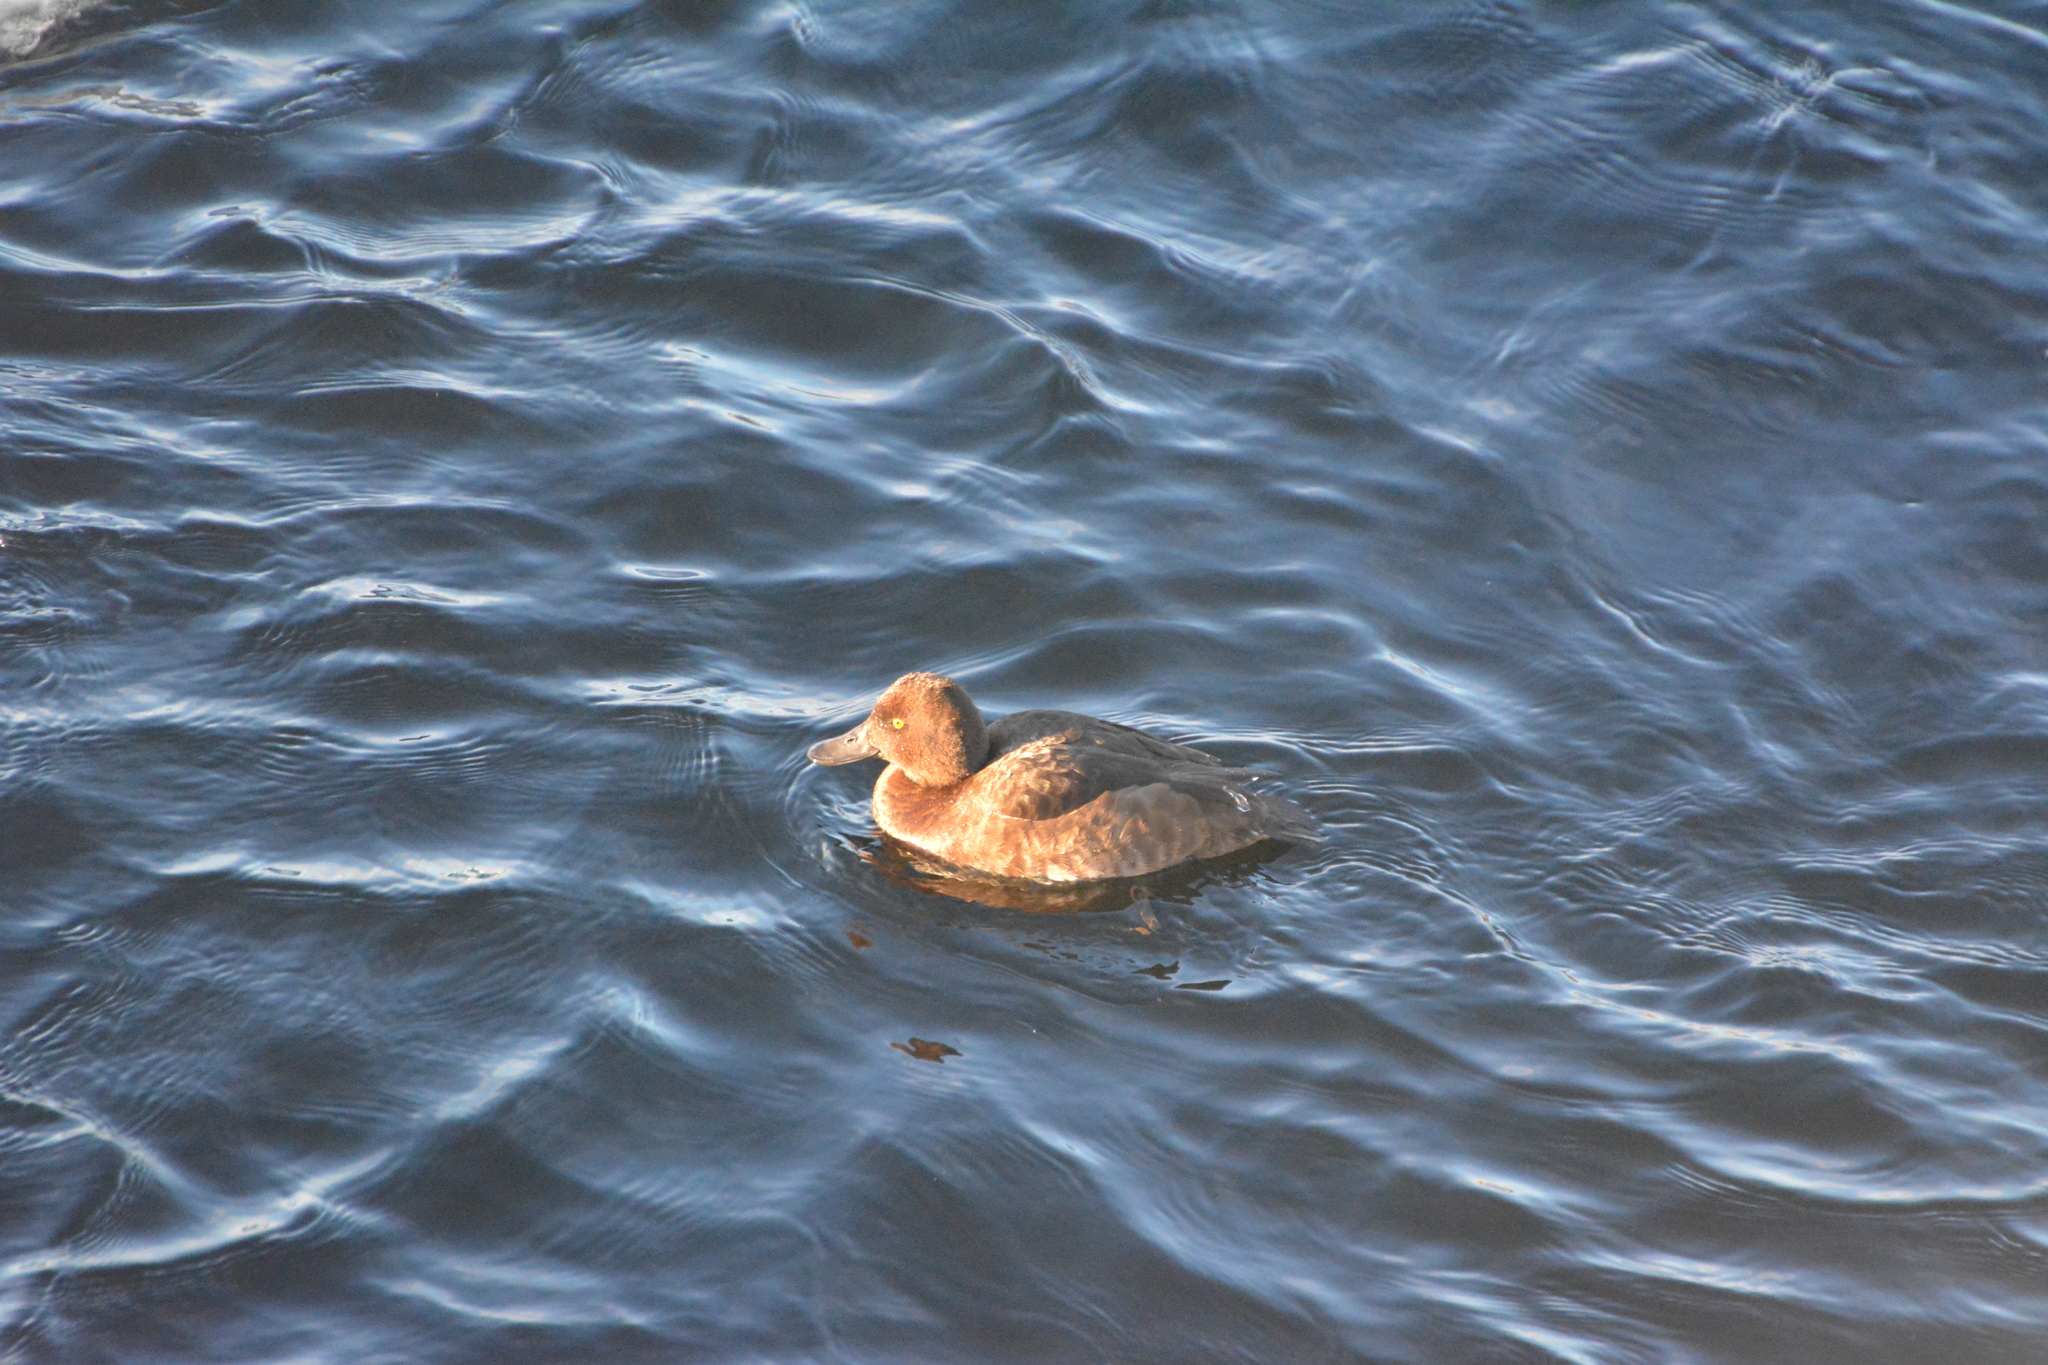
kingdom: Animalia
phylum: Chordata
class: Aves
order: Anseriformes
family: Anatidae
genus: Aythya
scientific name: Aythya fuligula
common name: Tufted duck
